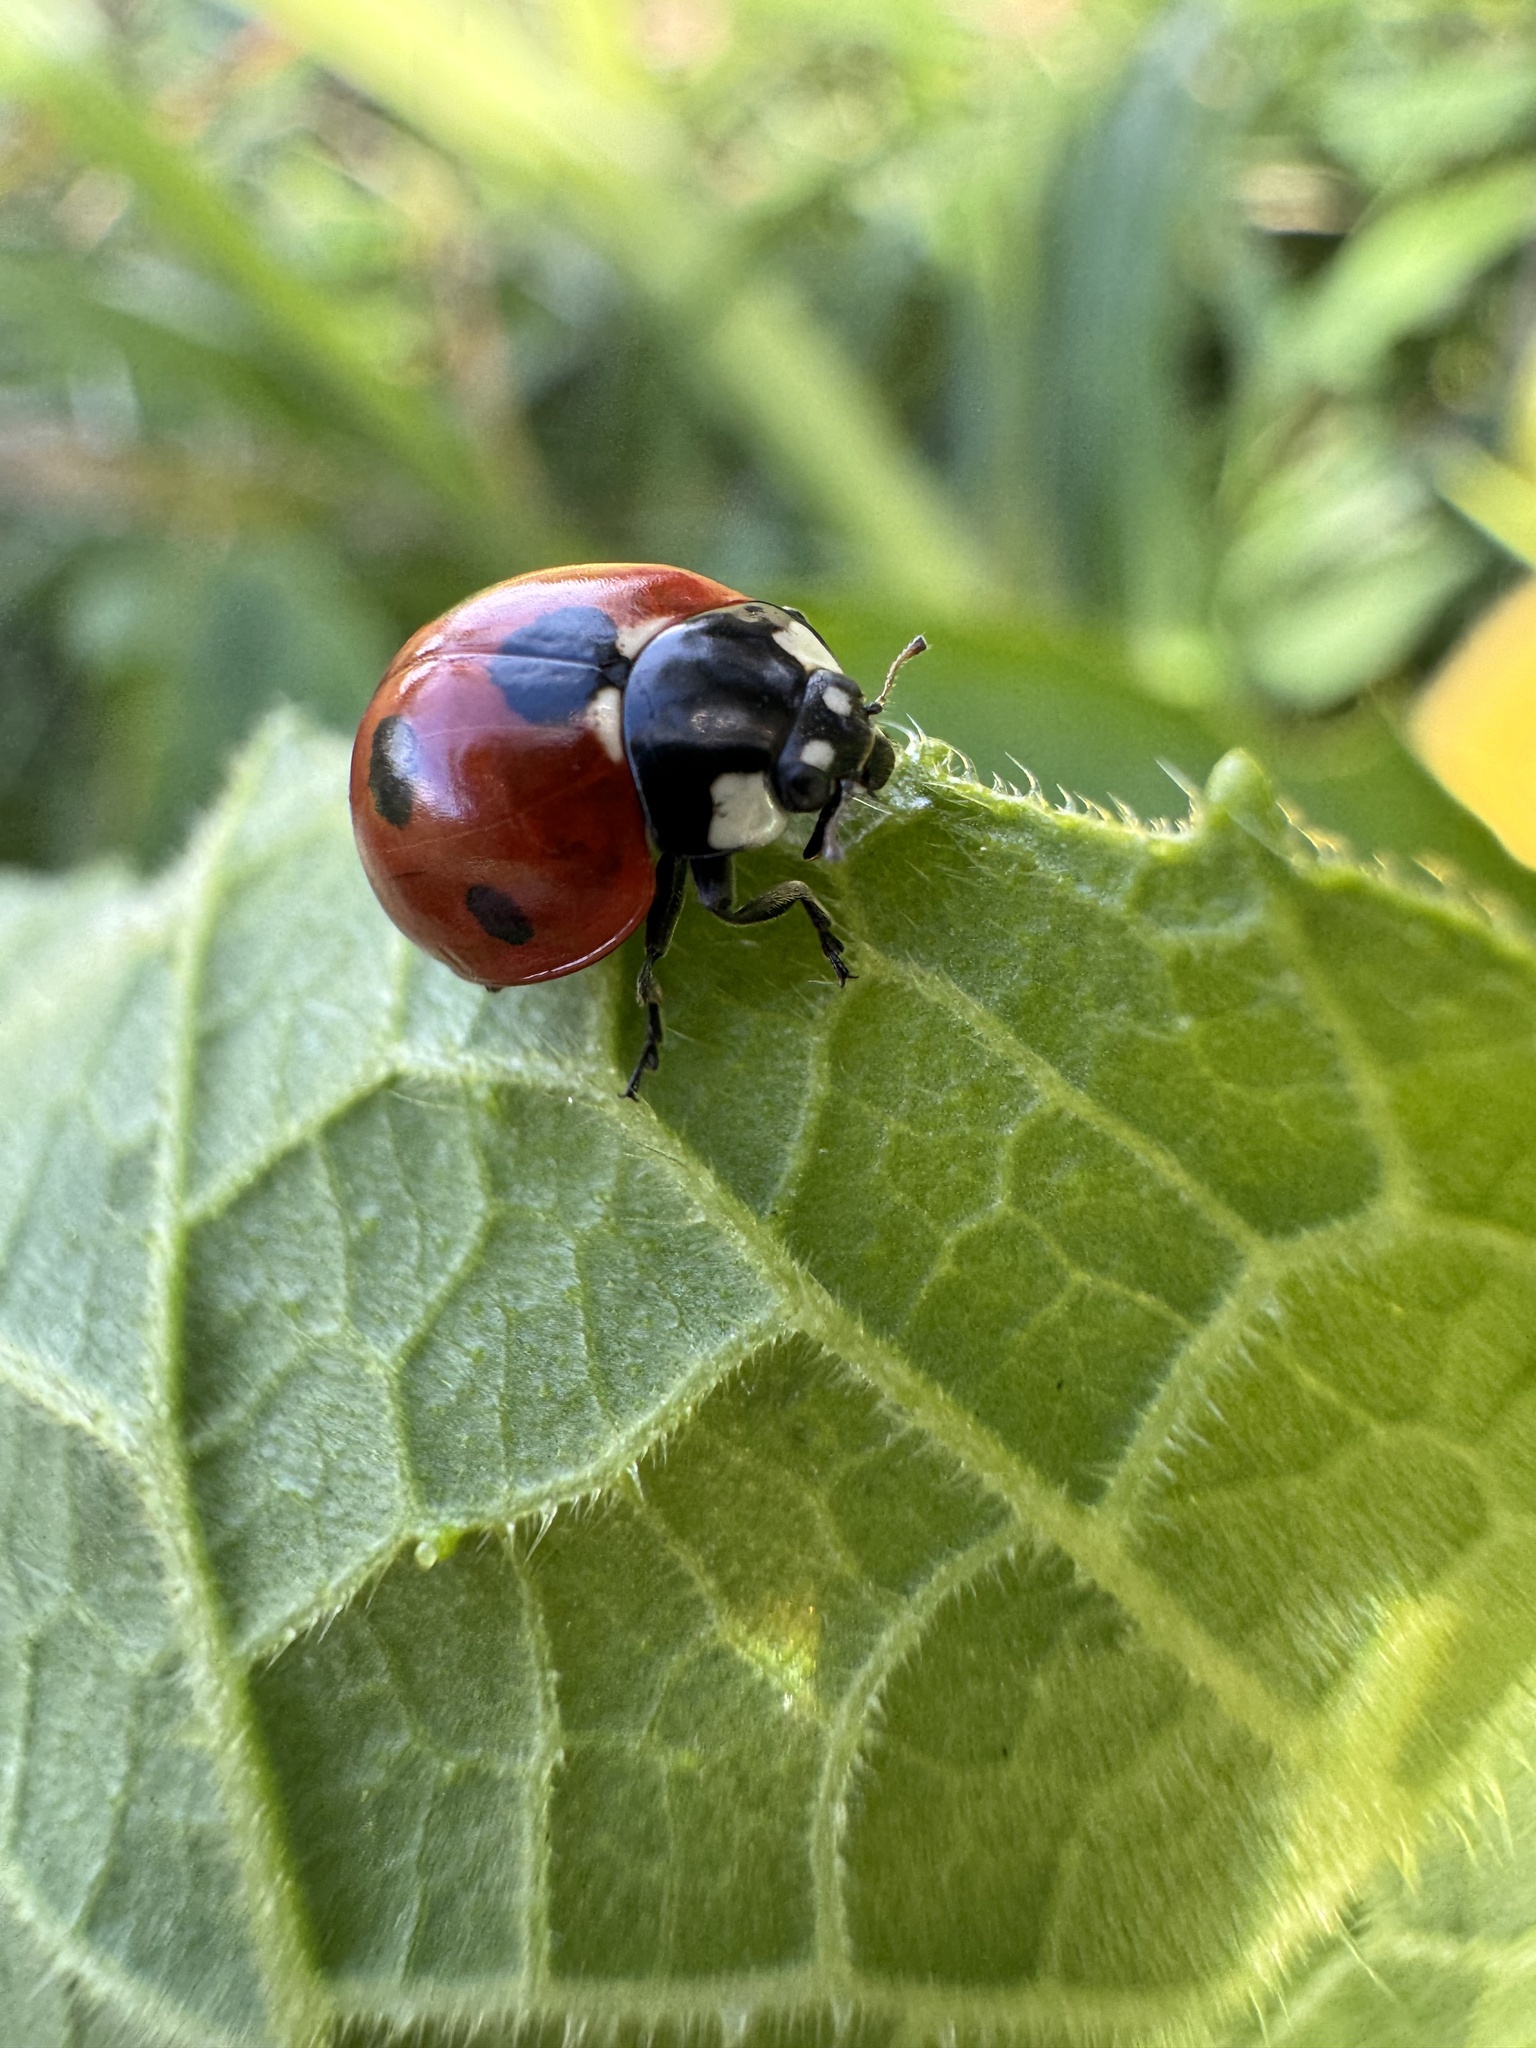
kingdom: Animalia
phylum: Arthropoda
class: Insecta
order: Coleoptera
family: Coccinellidae
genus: Coccinella
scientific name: Coccinella septempunctata
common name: Sevenspotted lady beetle
